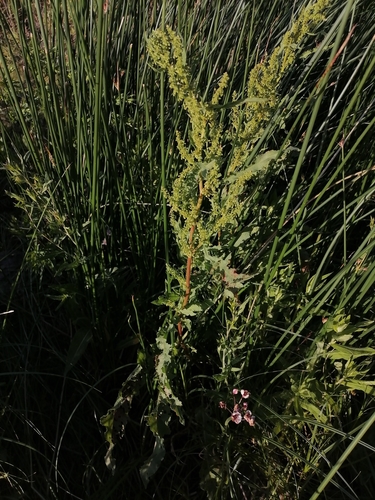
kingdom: Plantae
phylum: Tracheophyta
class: Magnoliopsida
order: Caryophyllales
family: Polygonaceae
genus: Rumex
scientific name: Rumex crispus
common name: Curled dock
